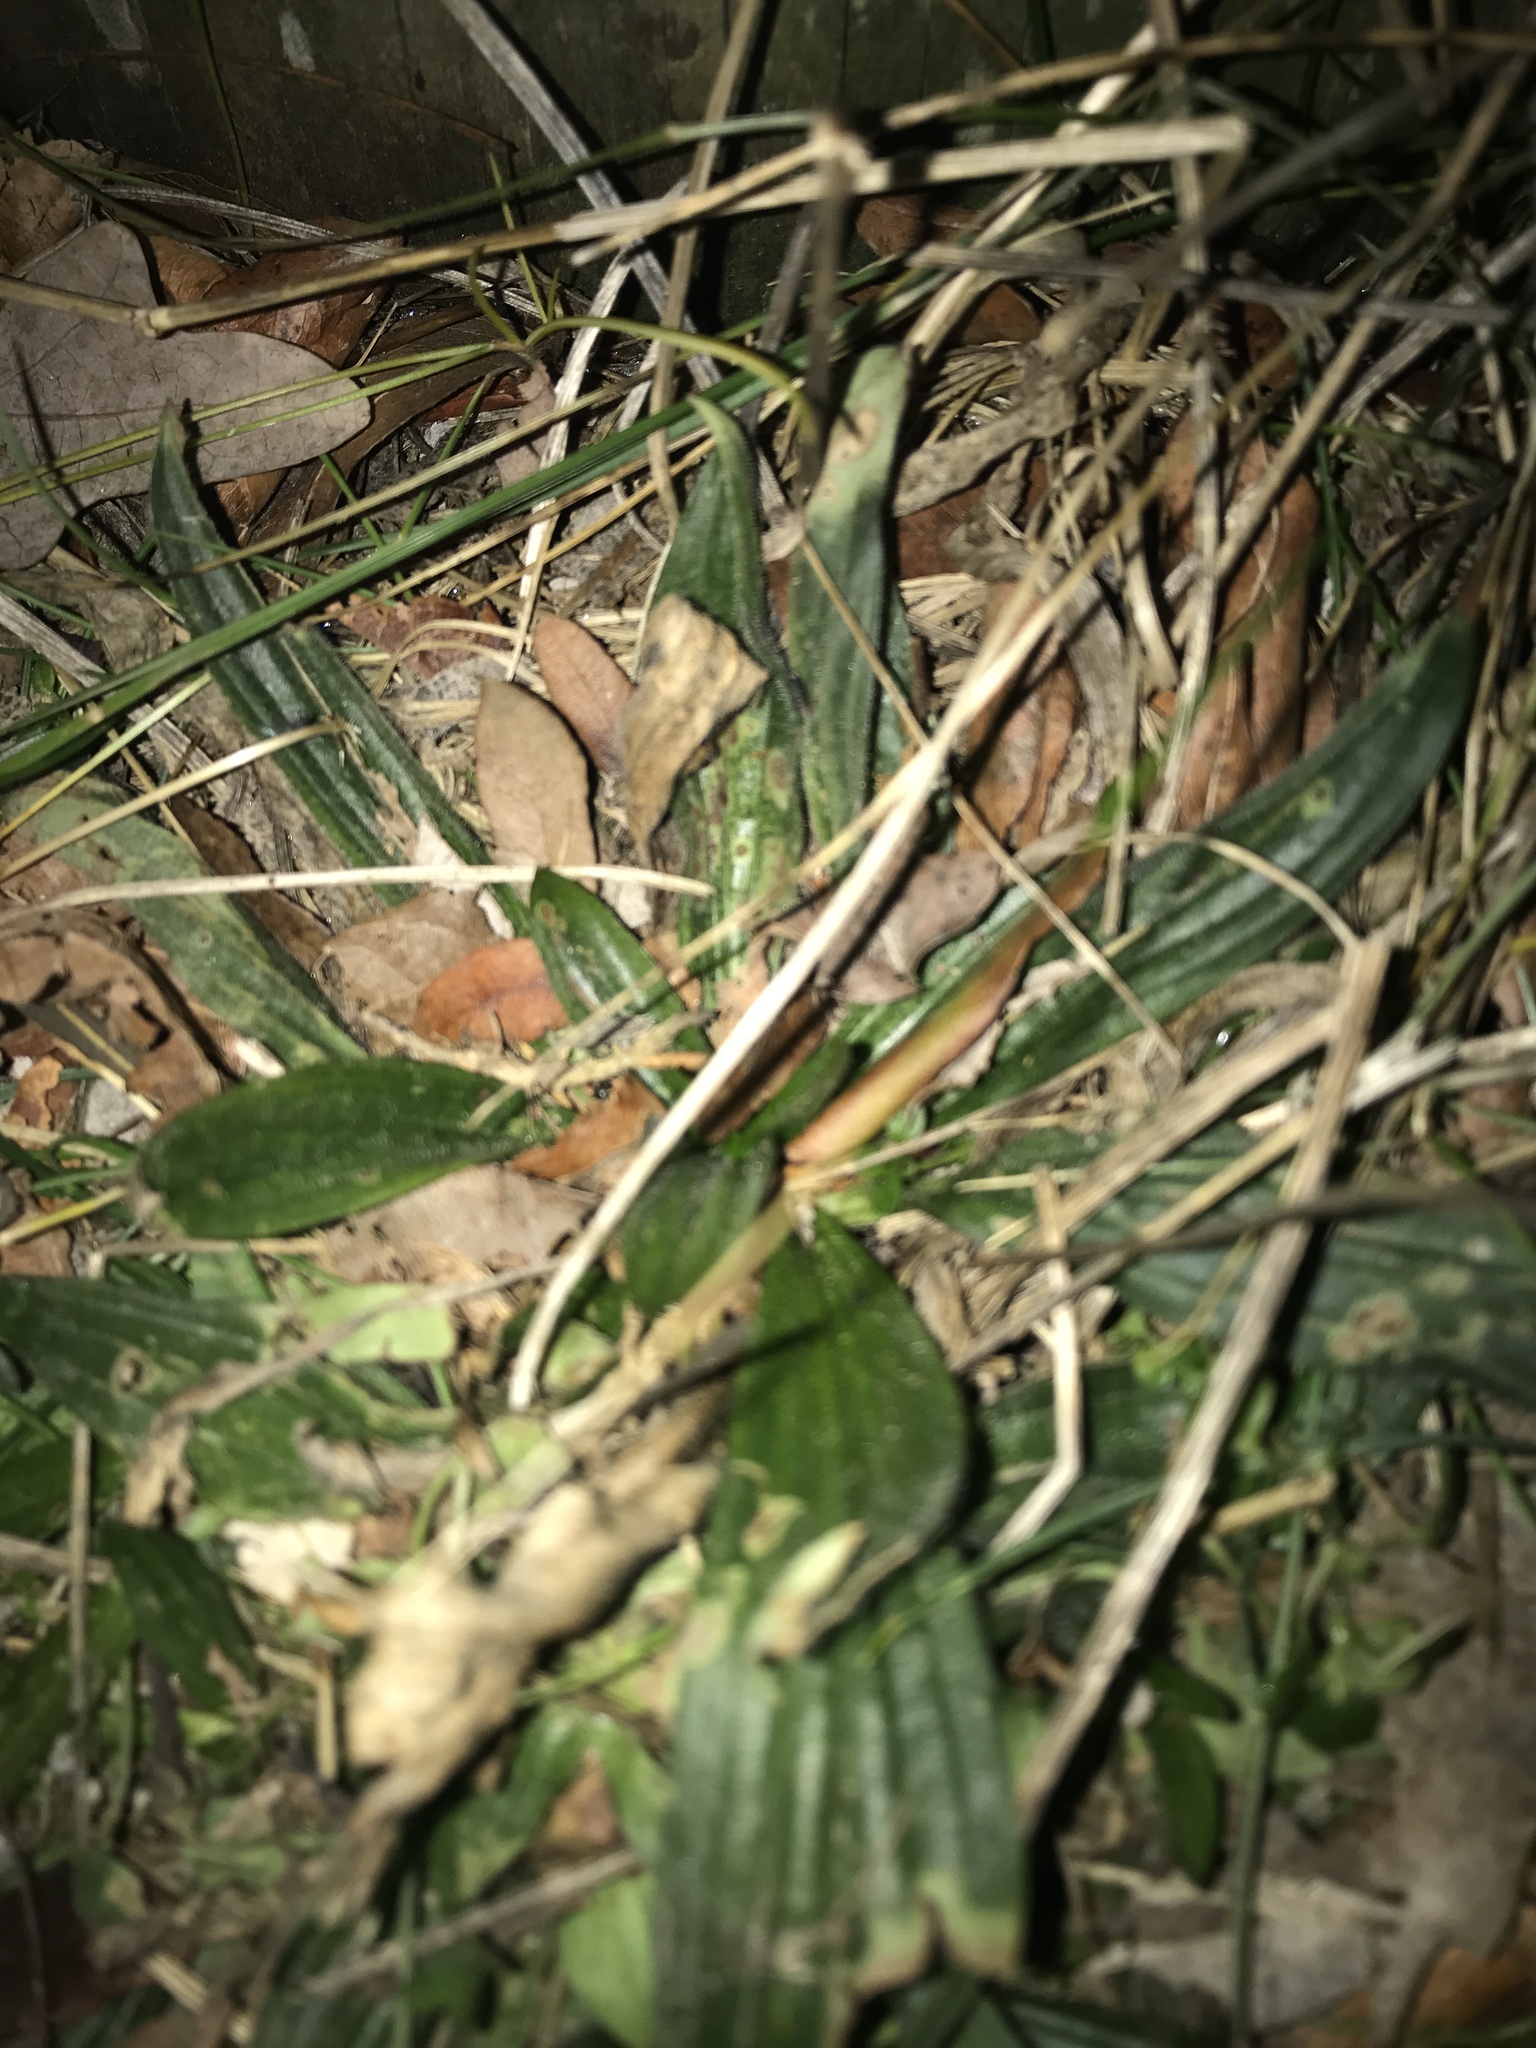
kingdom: Plantae
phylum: Tracheophyta
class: Magnoliopsida
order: Lamiales
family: Plantaginaceae
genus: Plantago
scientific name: Plantago lanceolata
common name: Ribwort plantain
